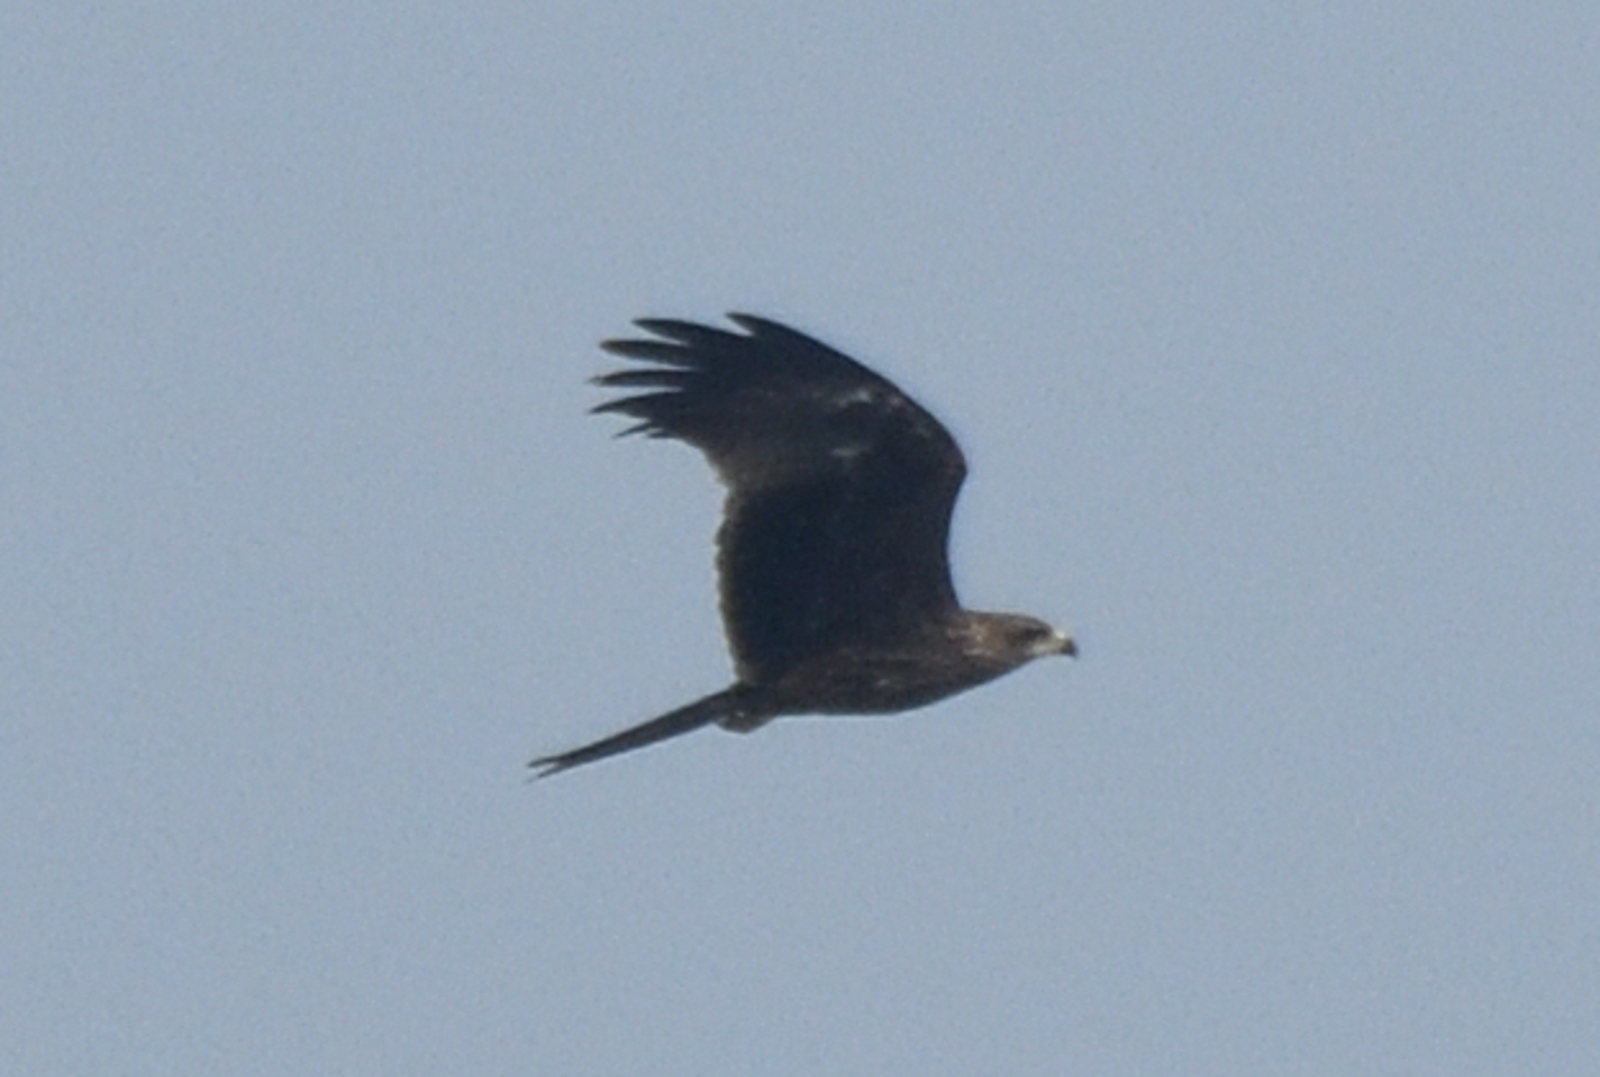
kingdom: Animalia
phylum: Chordata
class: Aves
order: Accipitriformes
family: Accipitridae
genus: Milvus
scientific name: Milvus migrans
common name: Black kite
